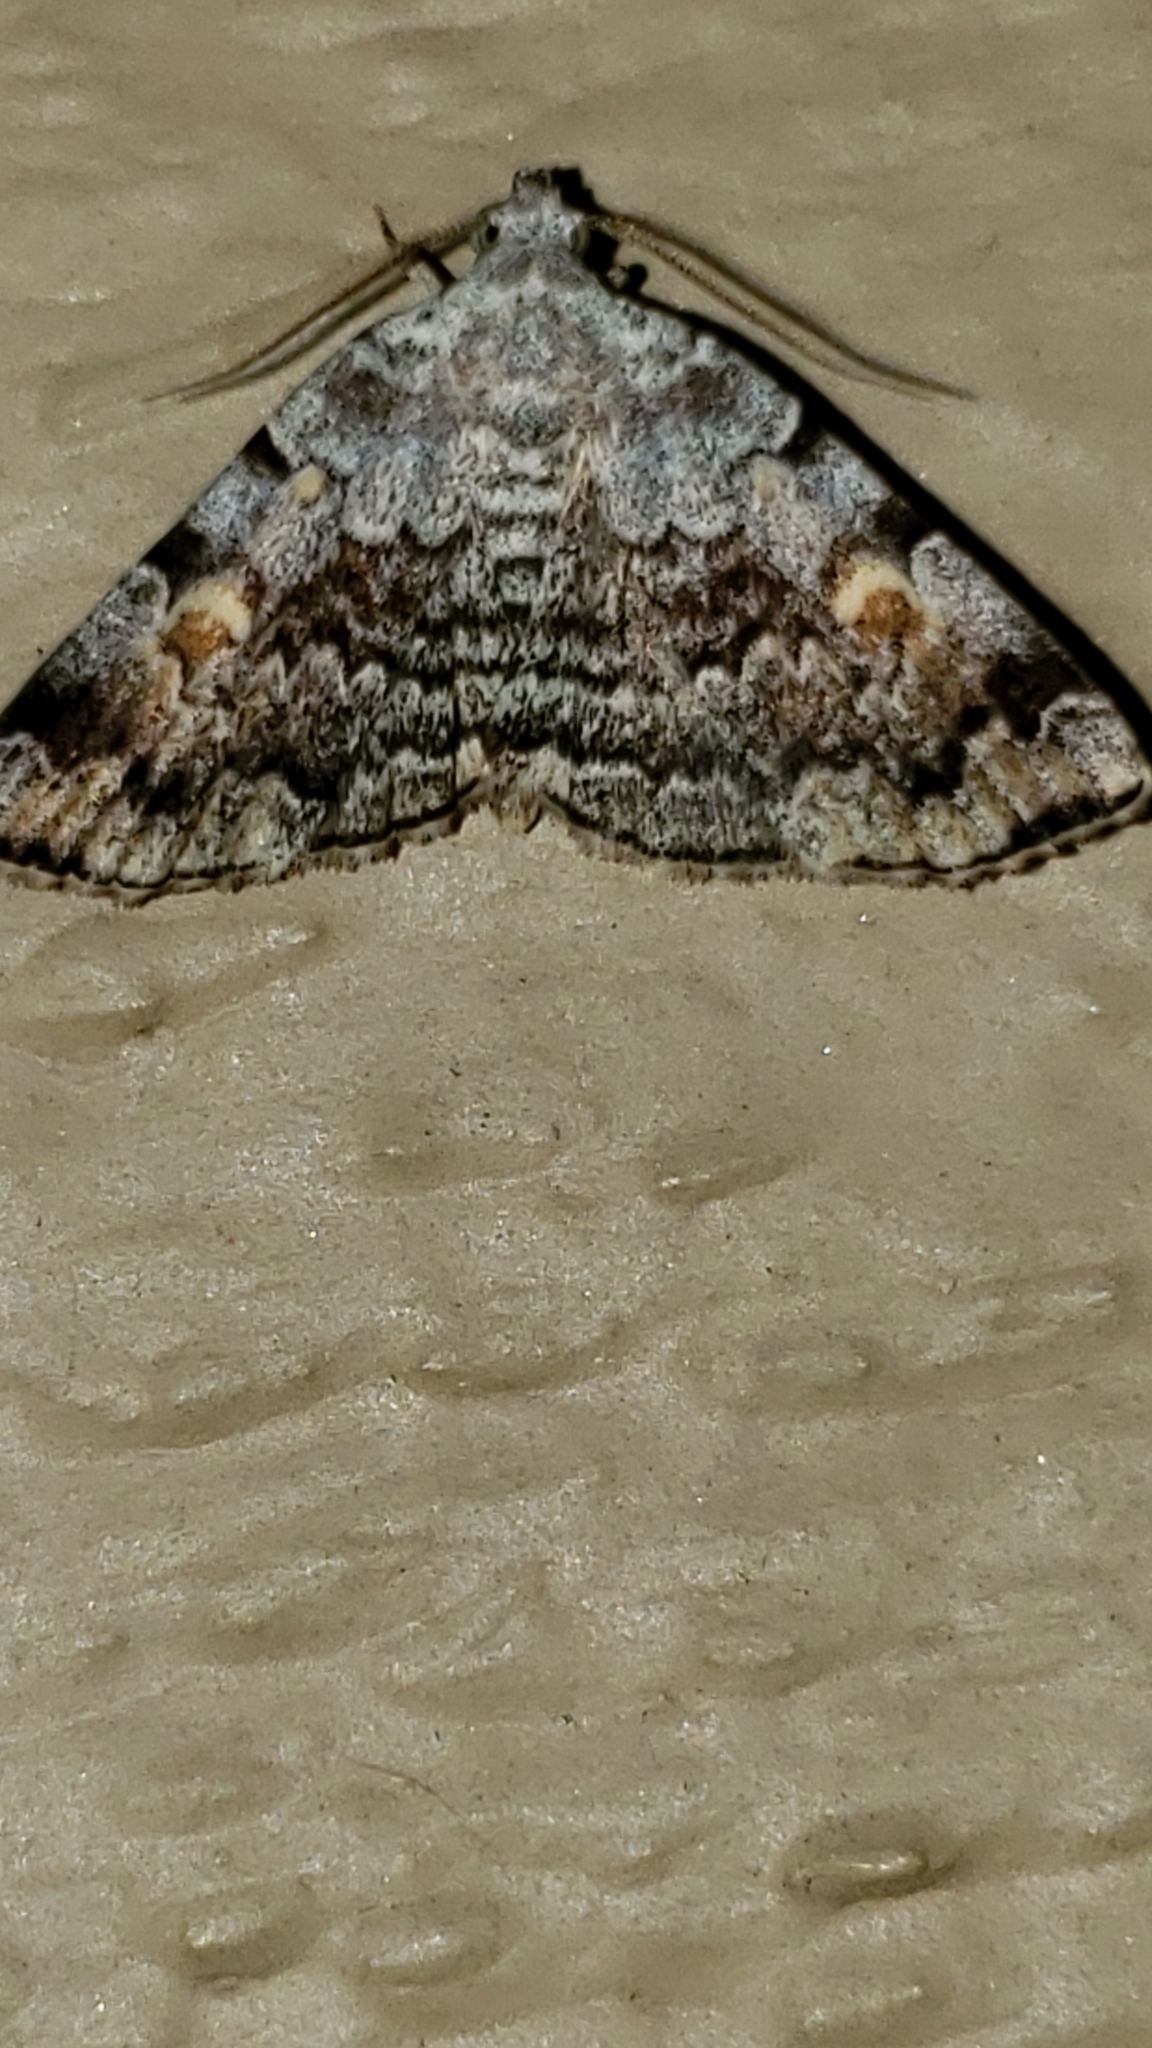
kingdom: Animalia
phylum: Arthropoda
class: Insecta
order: Lepidoptera
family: Erebidae
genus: Idia
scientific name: Idia americalis
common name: American idia moth
